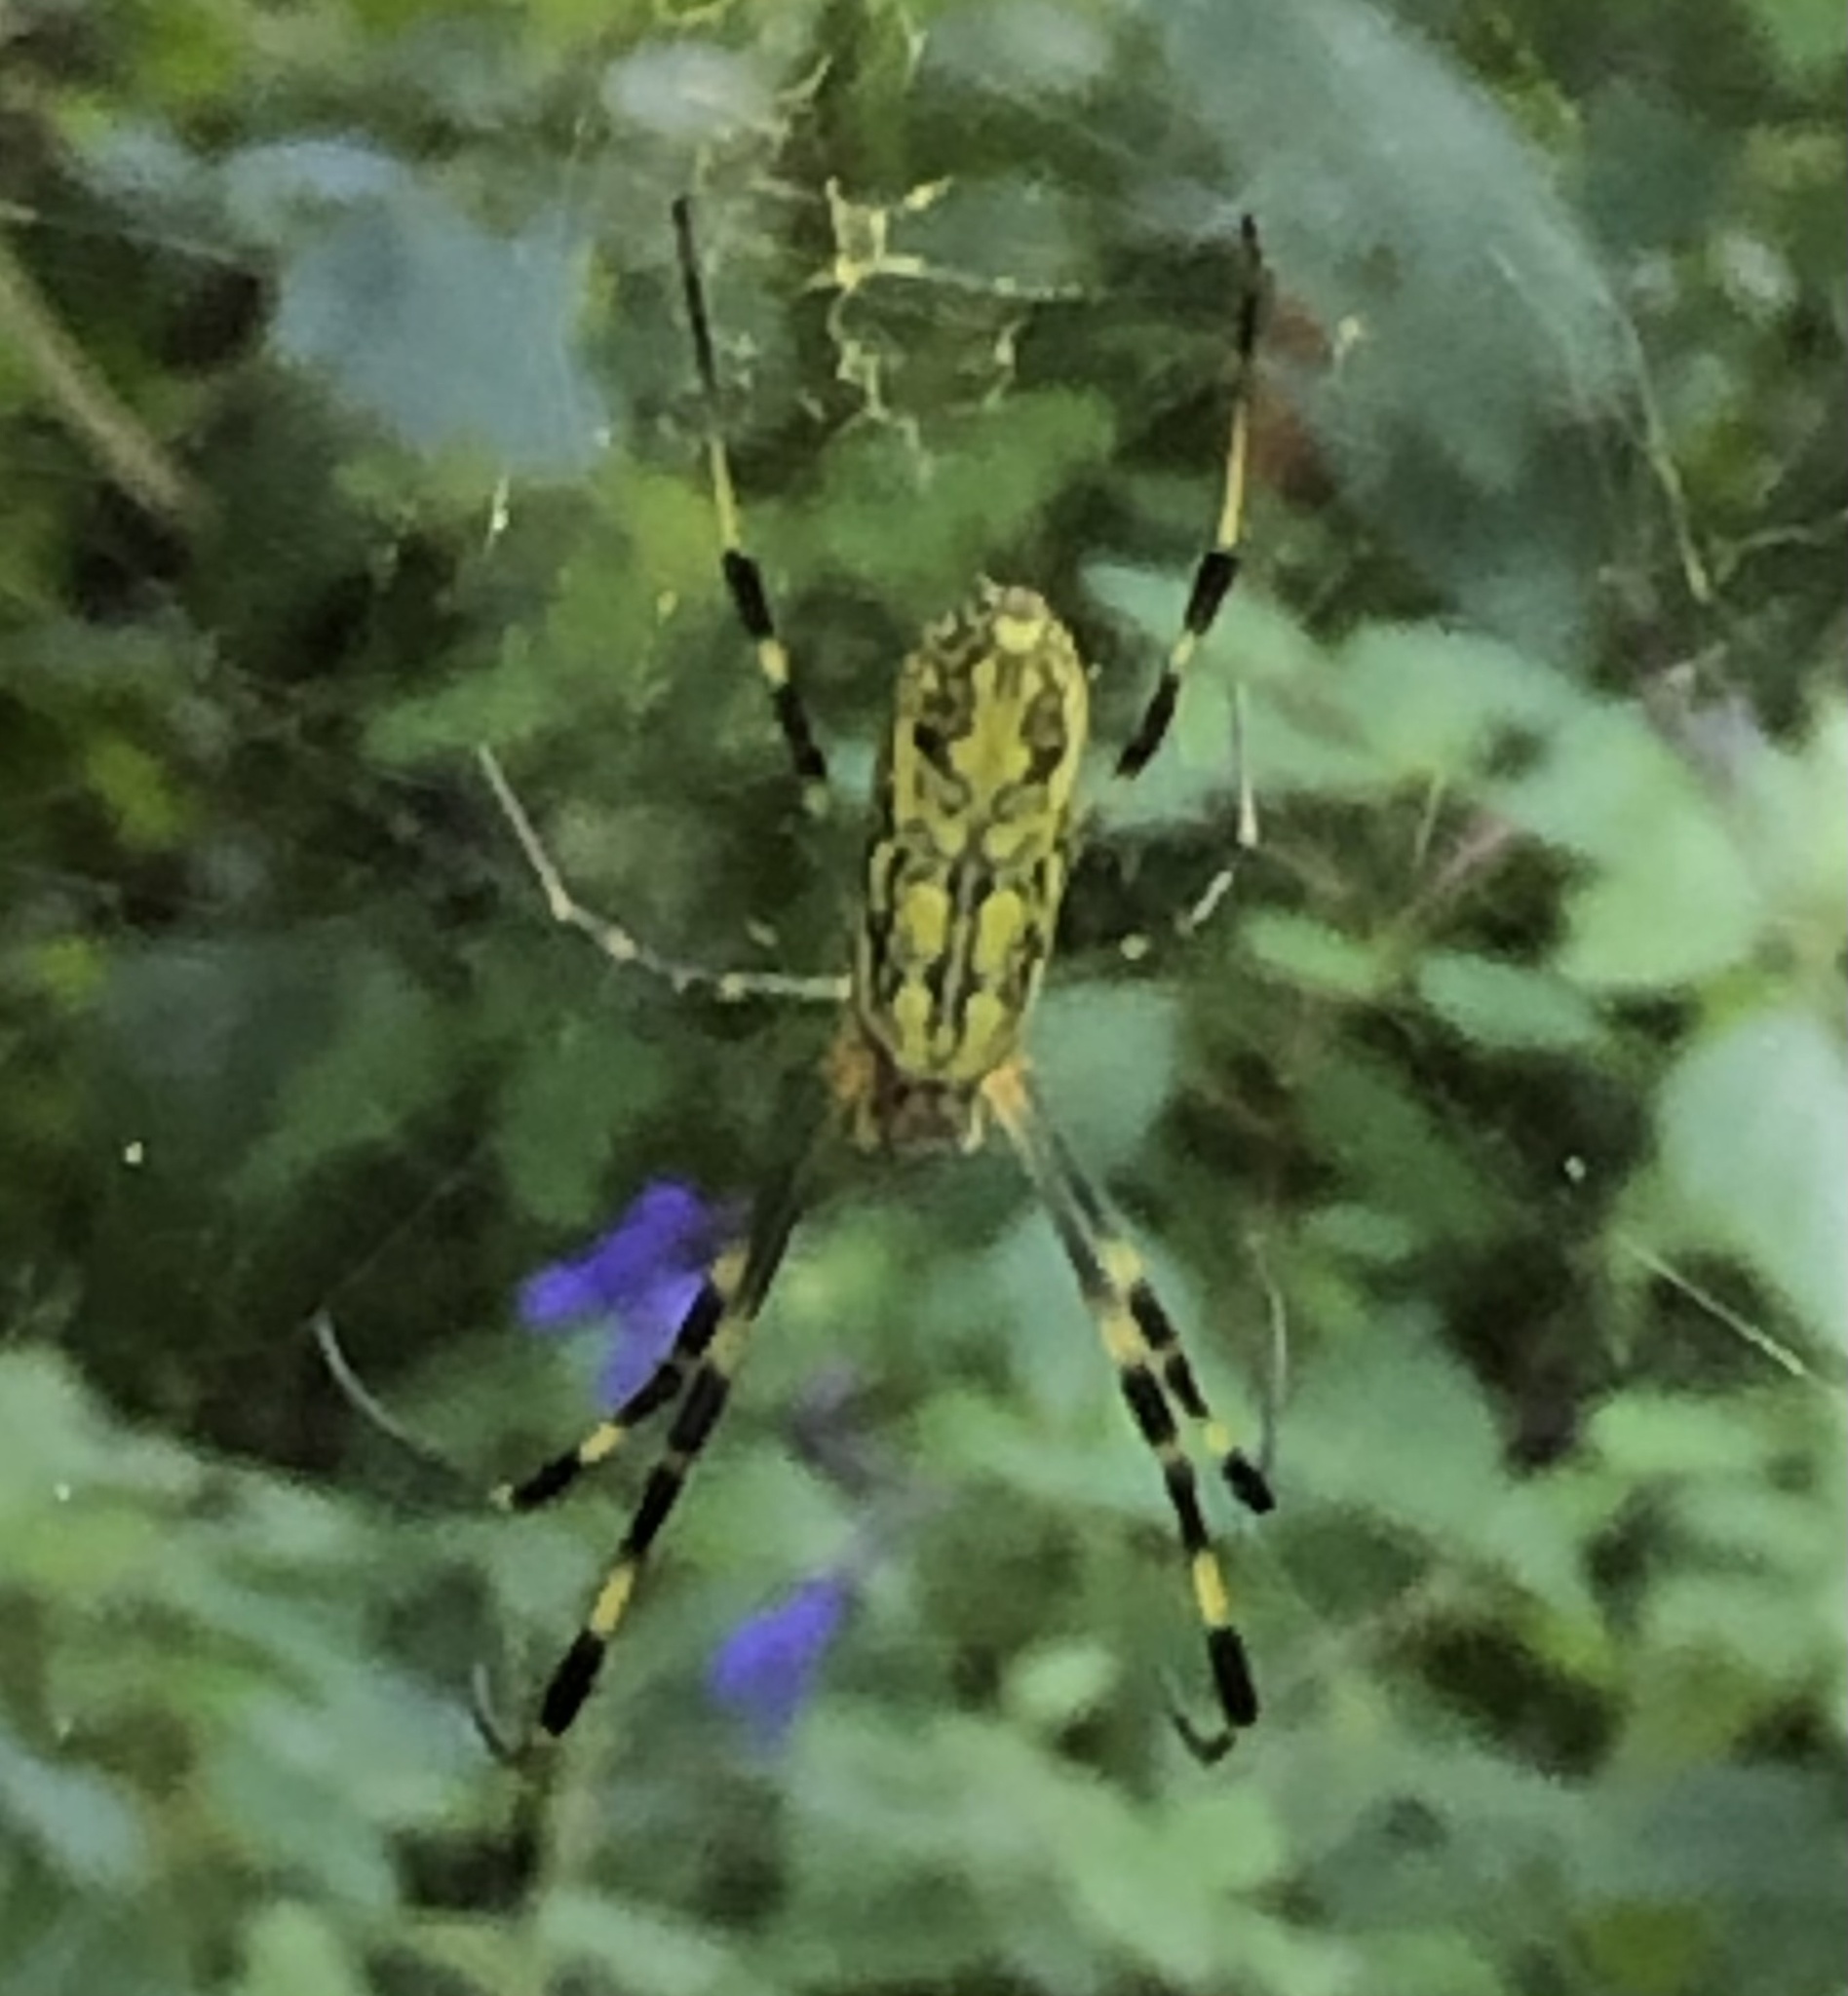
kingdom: Animalia
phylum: Arthropoda
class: Arachnida
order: Araneae
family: Araneidae
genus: Trichonephila
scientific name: Trichonephila clavata
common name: Jorō spider
